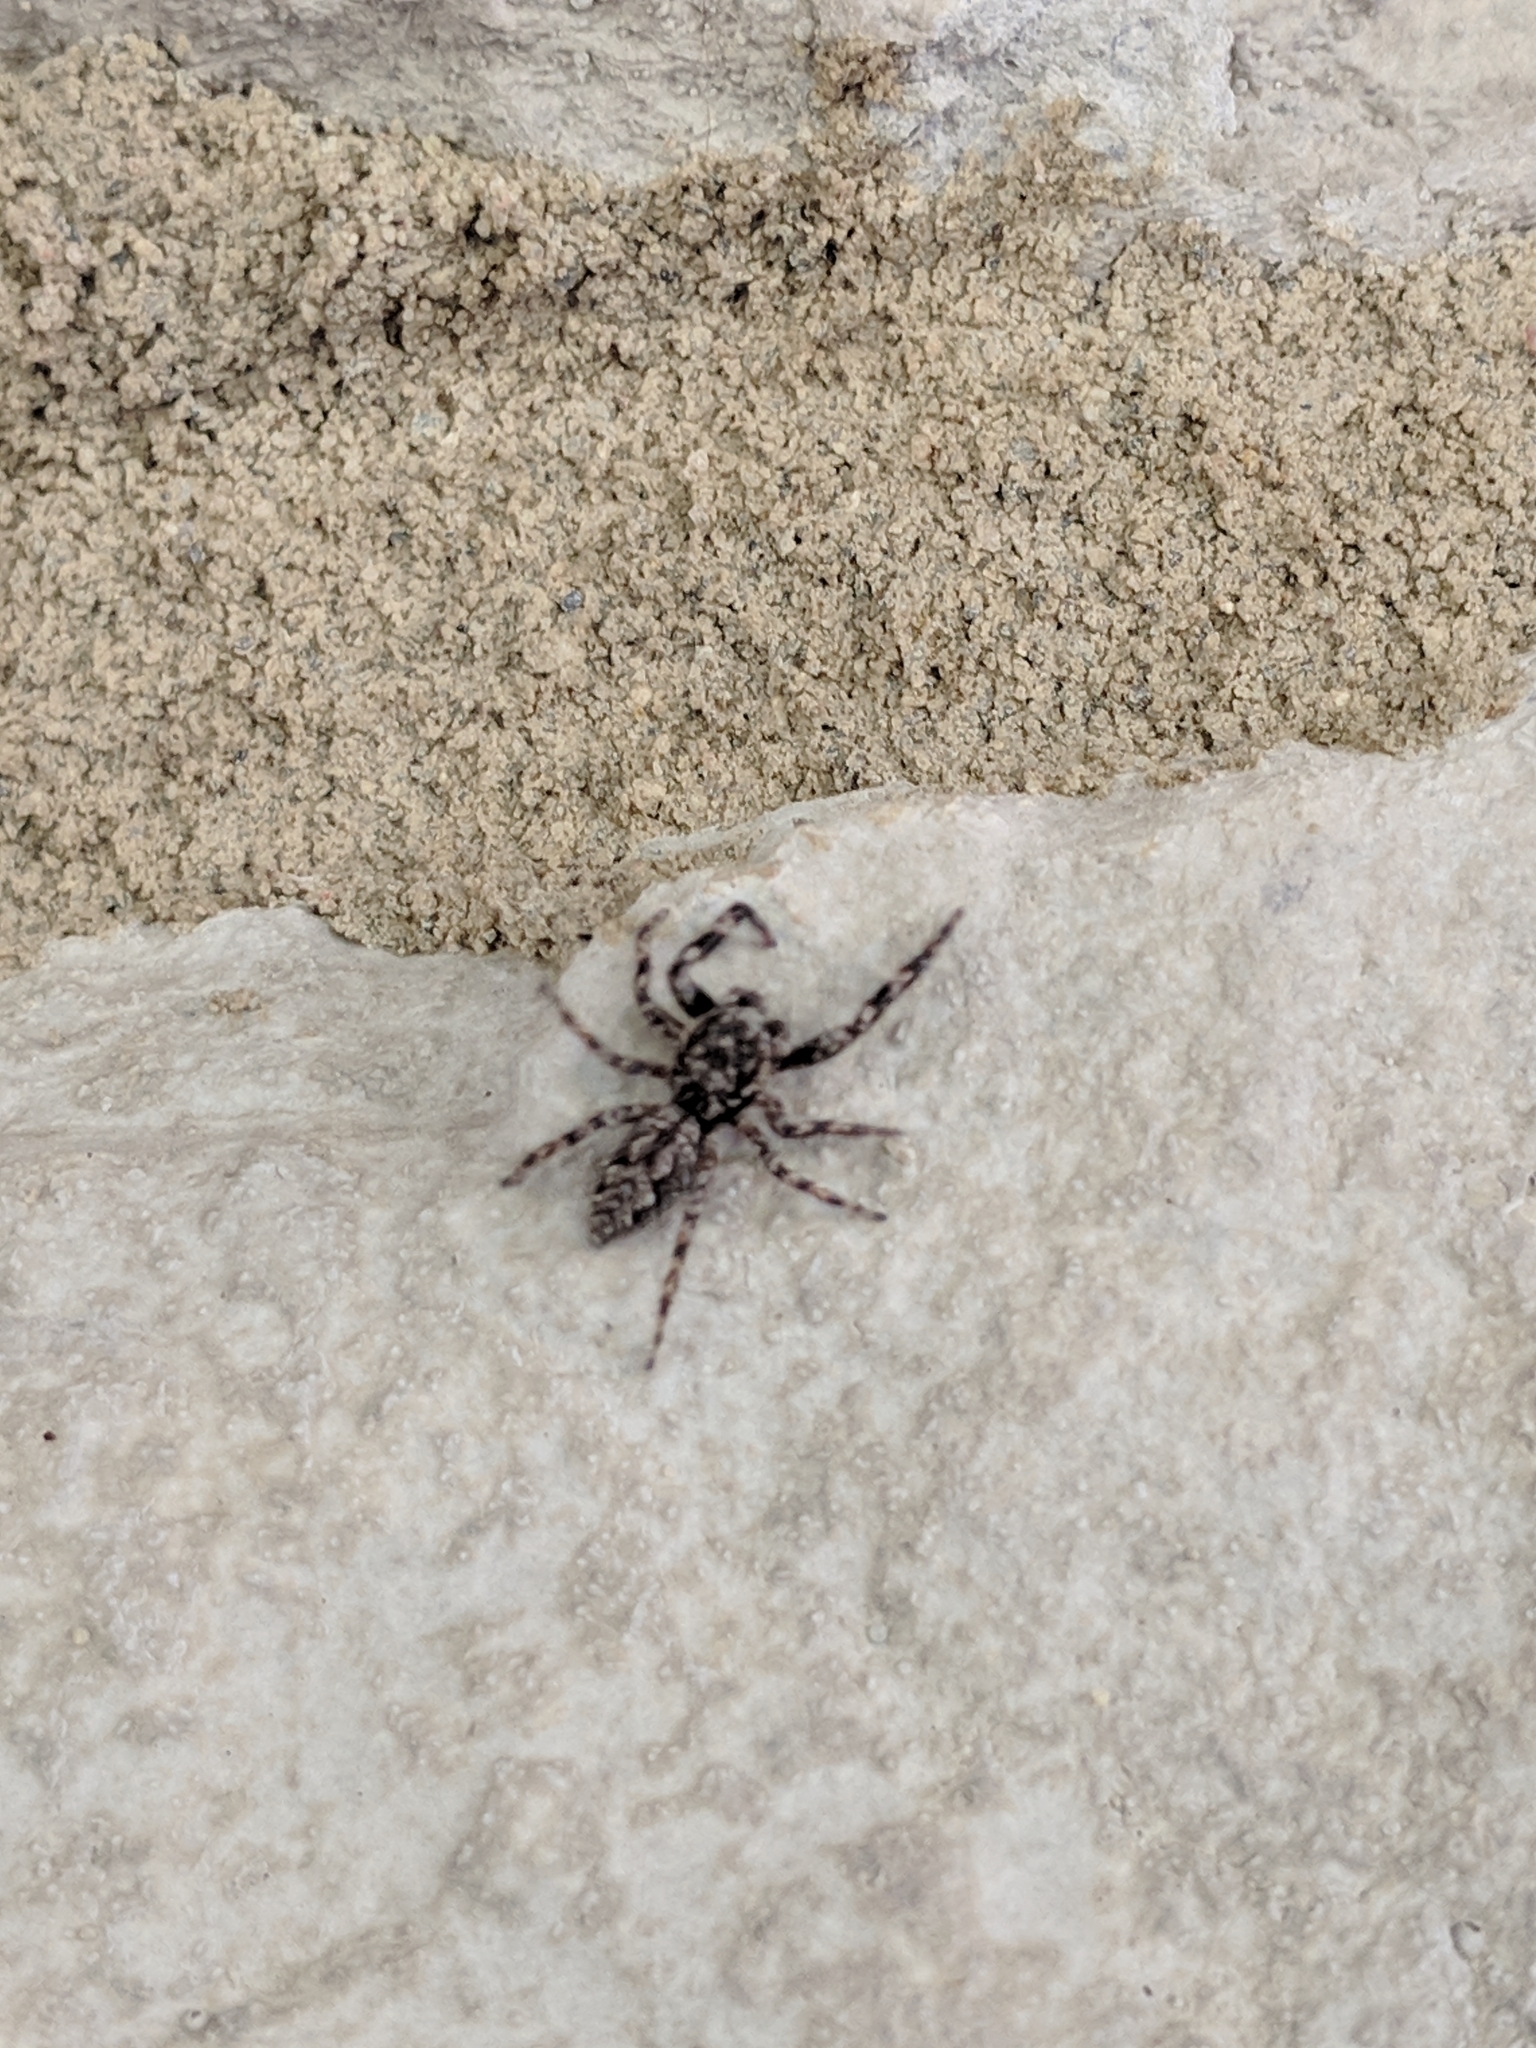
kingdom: Animalia
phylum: Arthropoda
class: Arachnida
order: Araneae
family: Salticidae
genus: Platycryptus
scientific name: Platycryptus undatus
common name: Tan jumping spider
